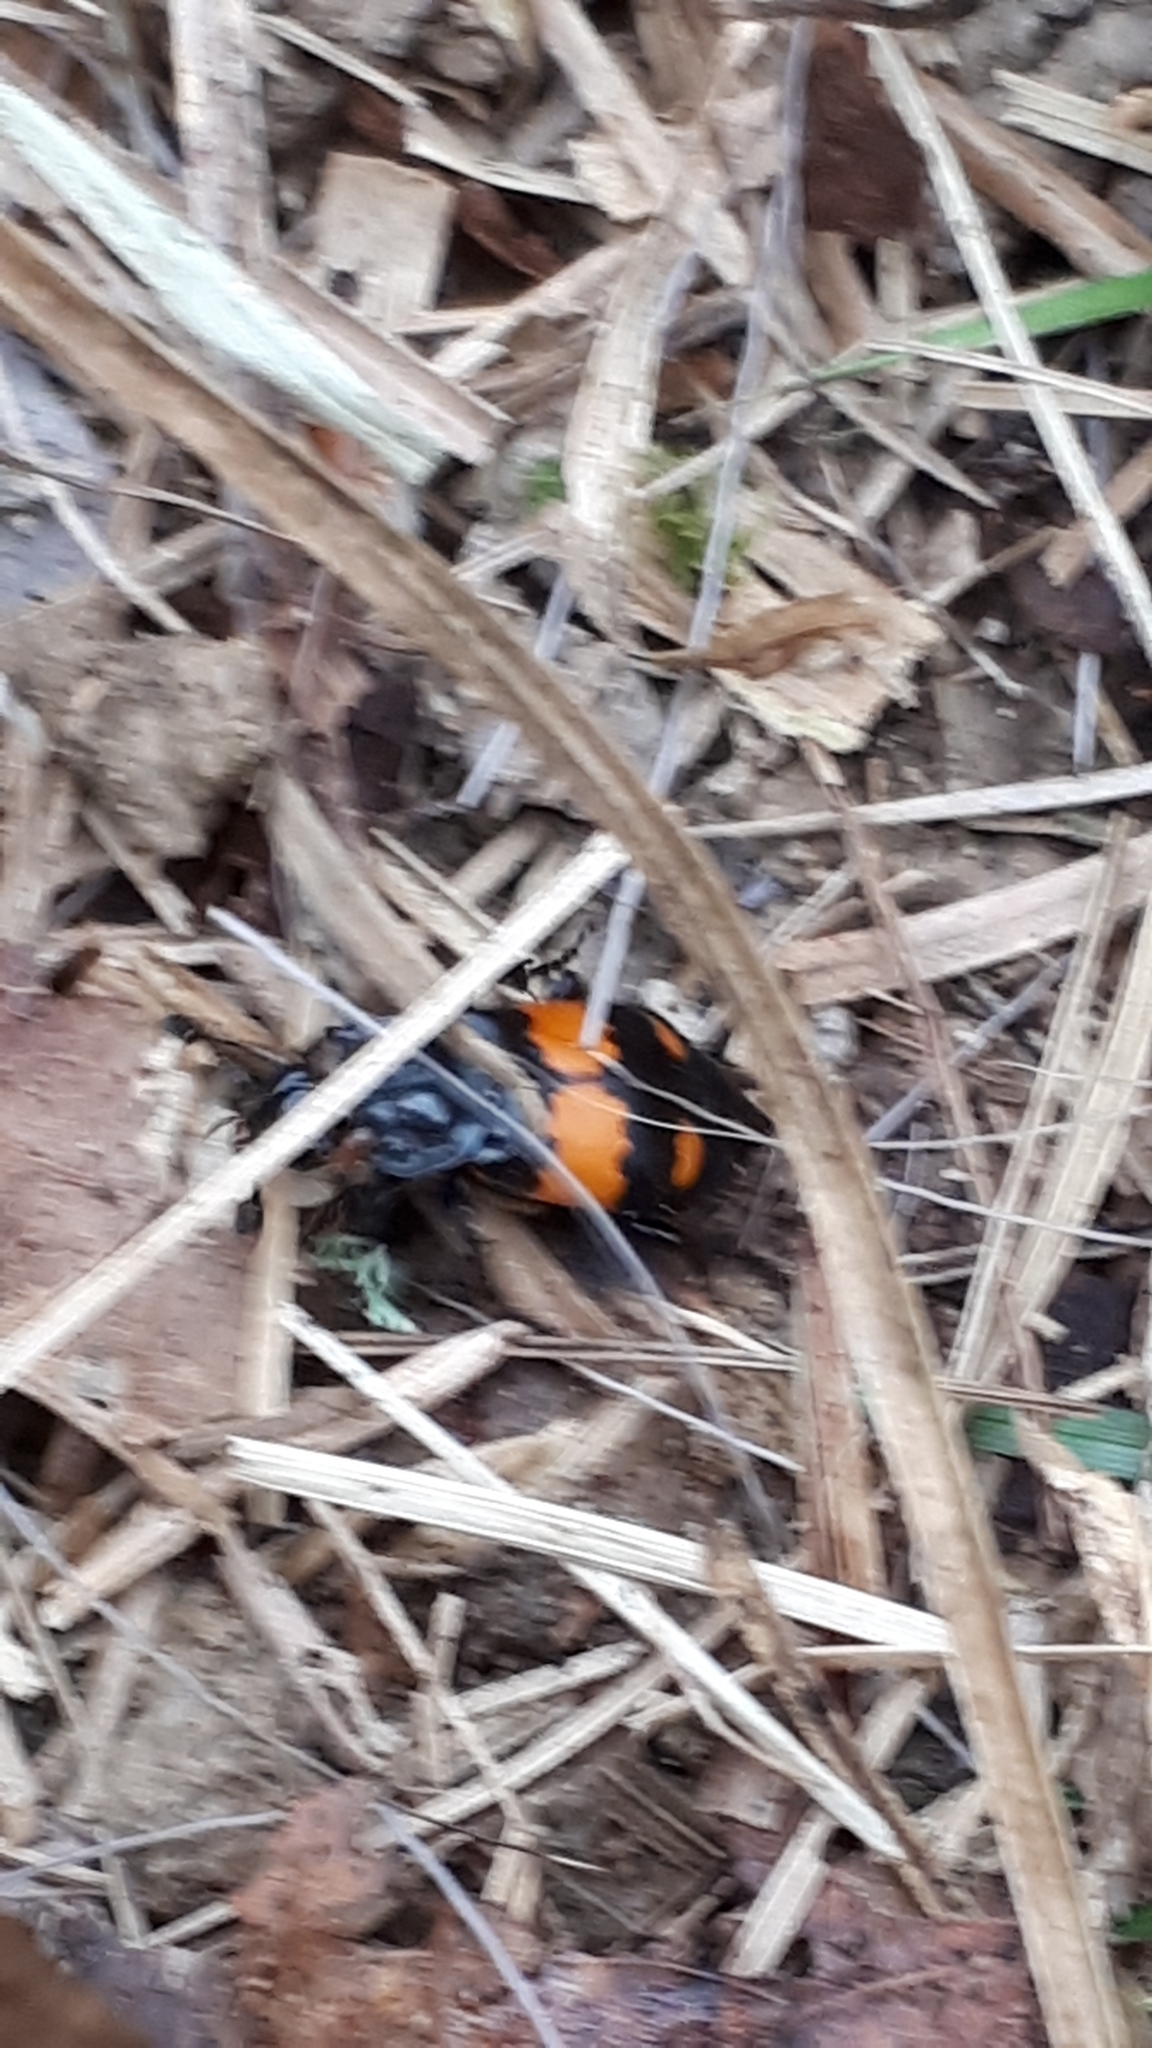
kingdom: Animalia
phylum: Arthropoda
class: Insecta
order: Coleoptera
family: Staphylinidae
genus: Nicrophorus
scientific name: Nicrophorus vespilloides
